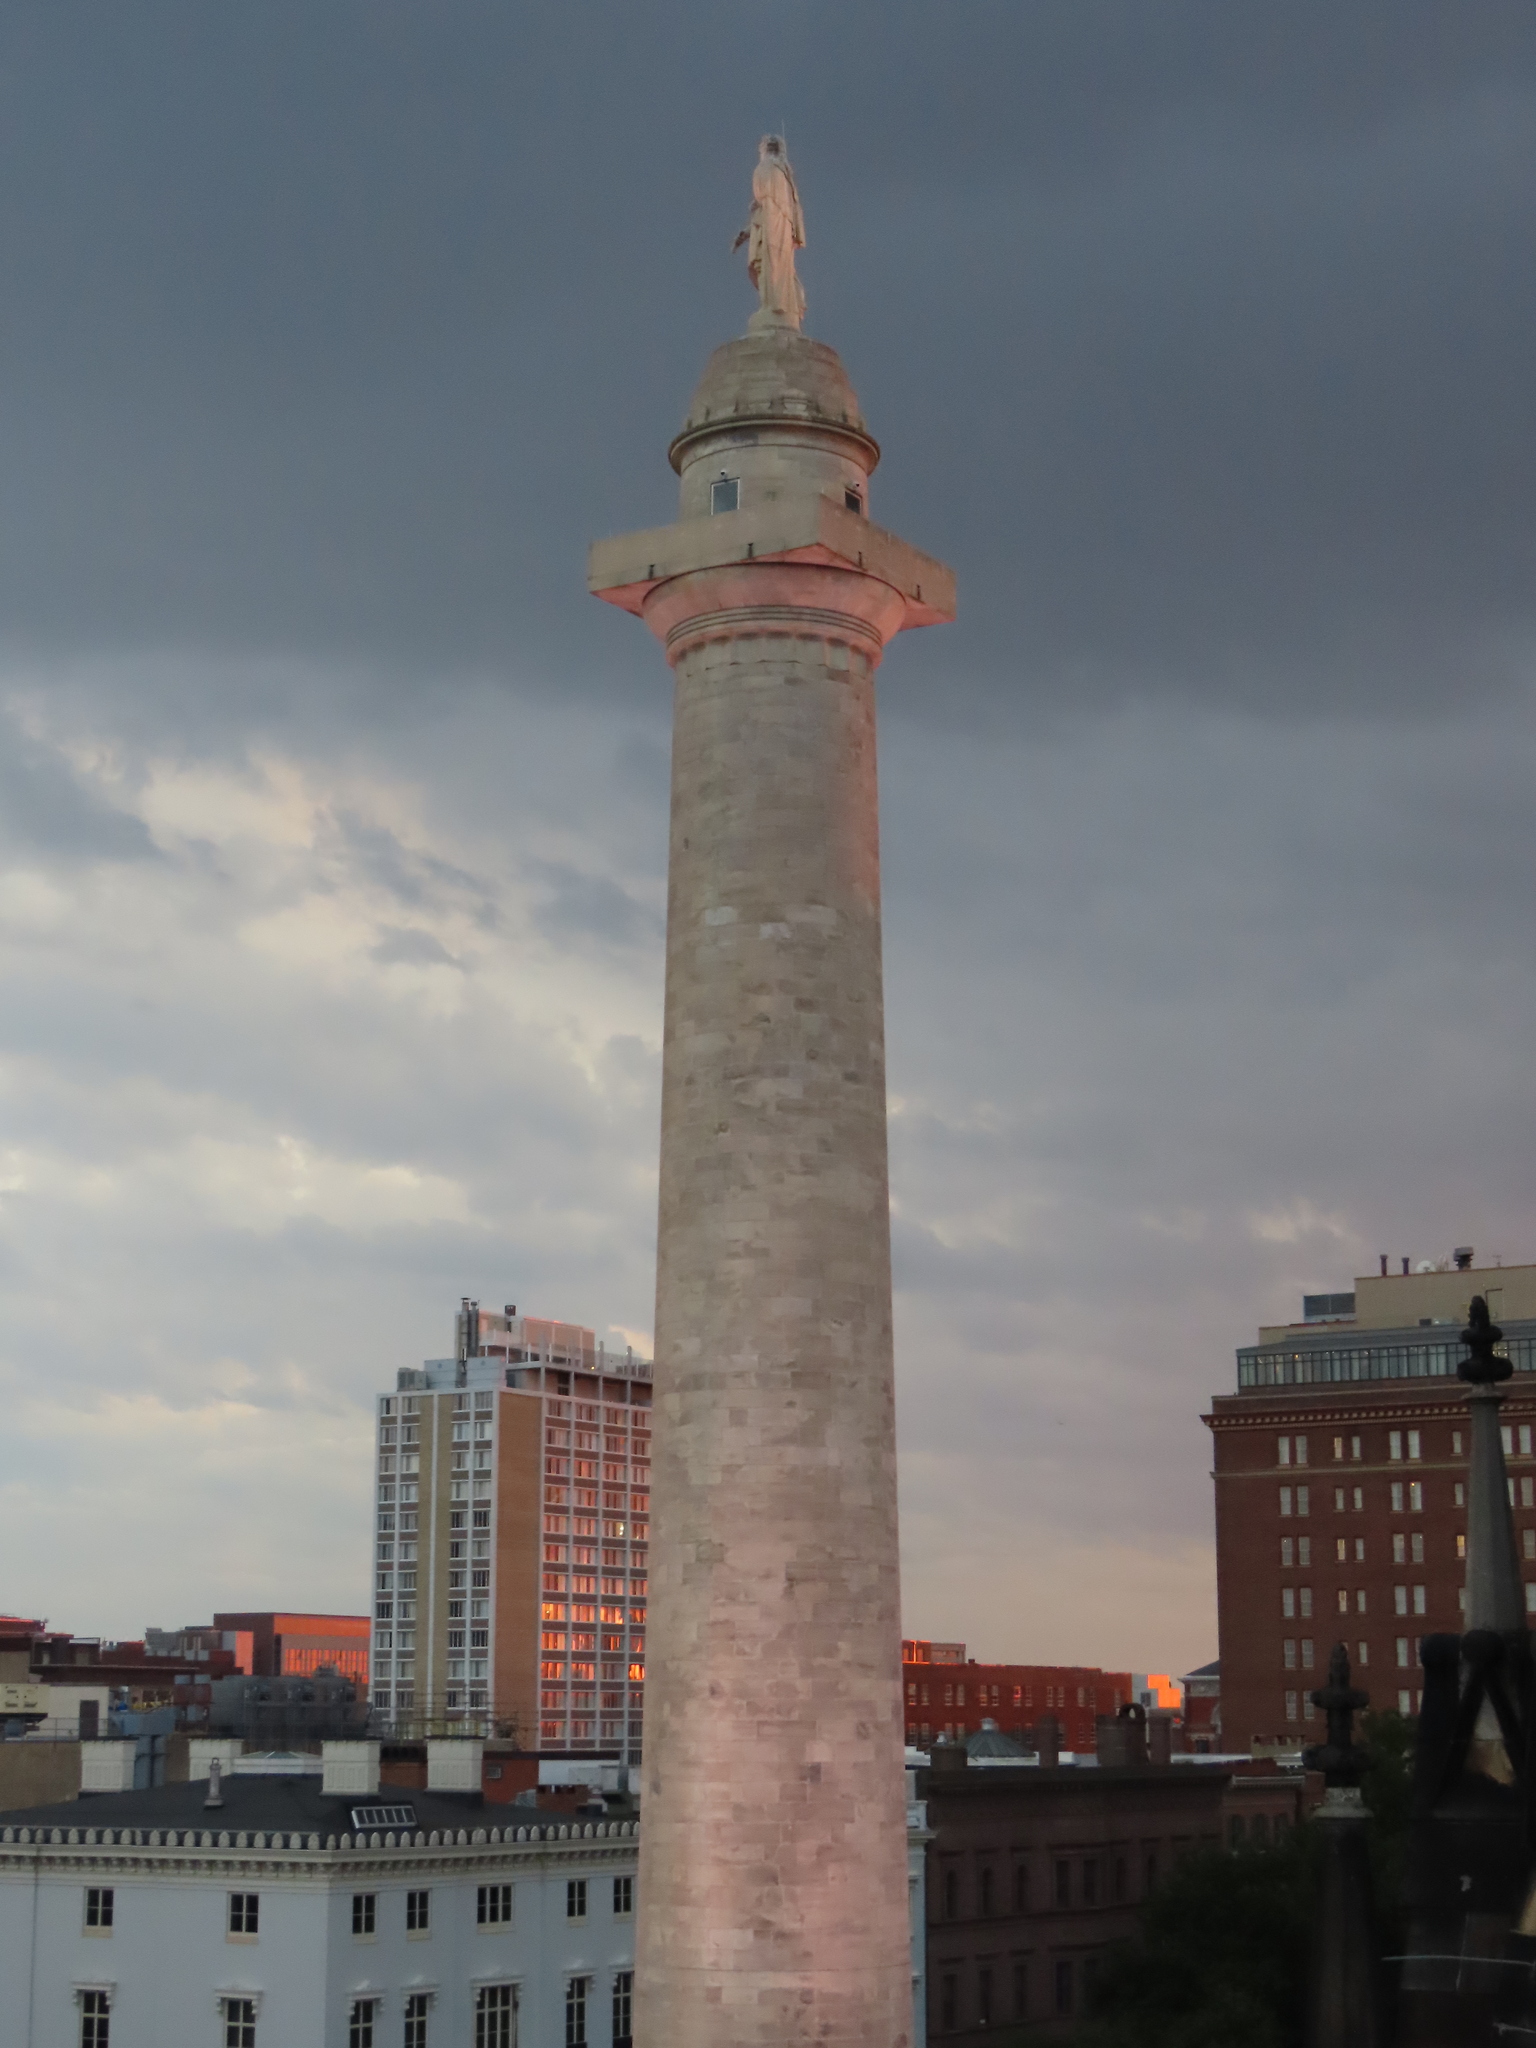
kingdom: Animalia
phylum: Chordata
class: Aves
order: Columbiformes
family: Columbidae
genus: Columba
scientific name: Columba livia
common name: Rock pigeon
